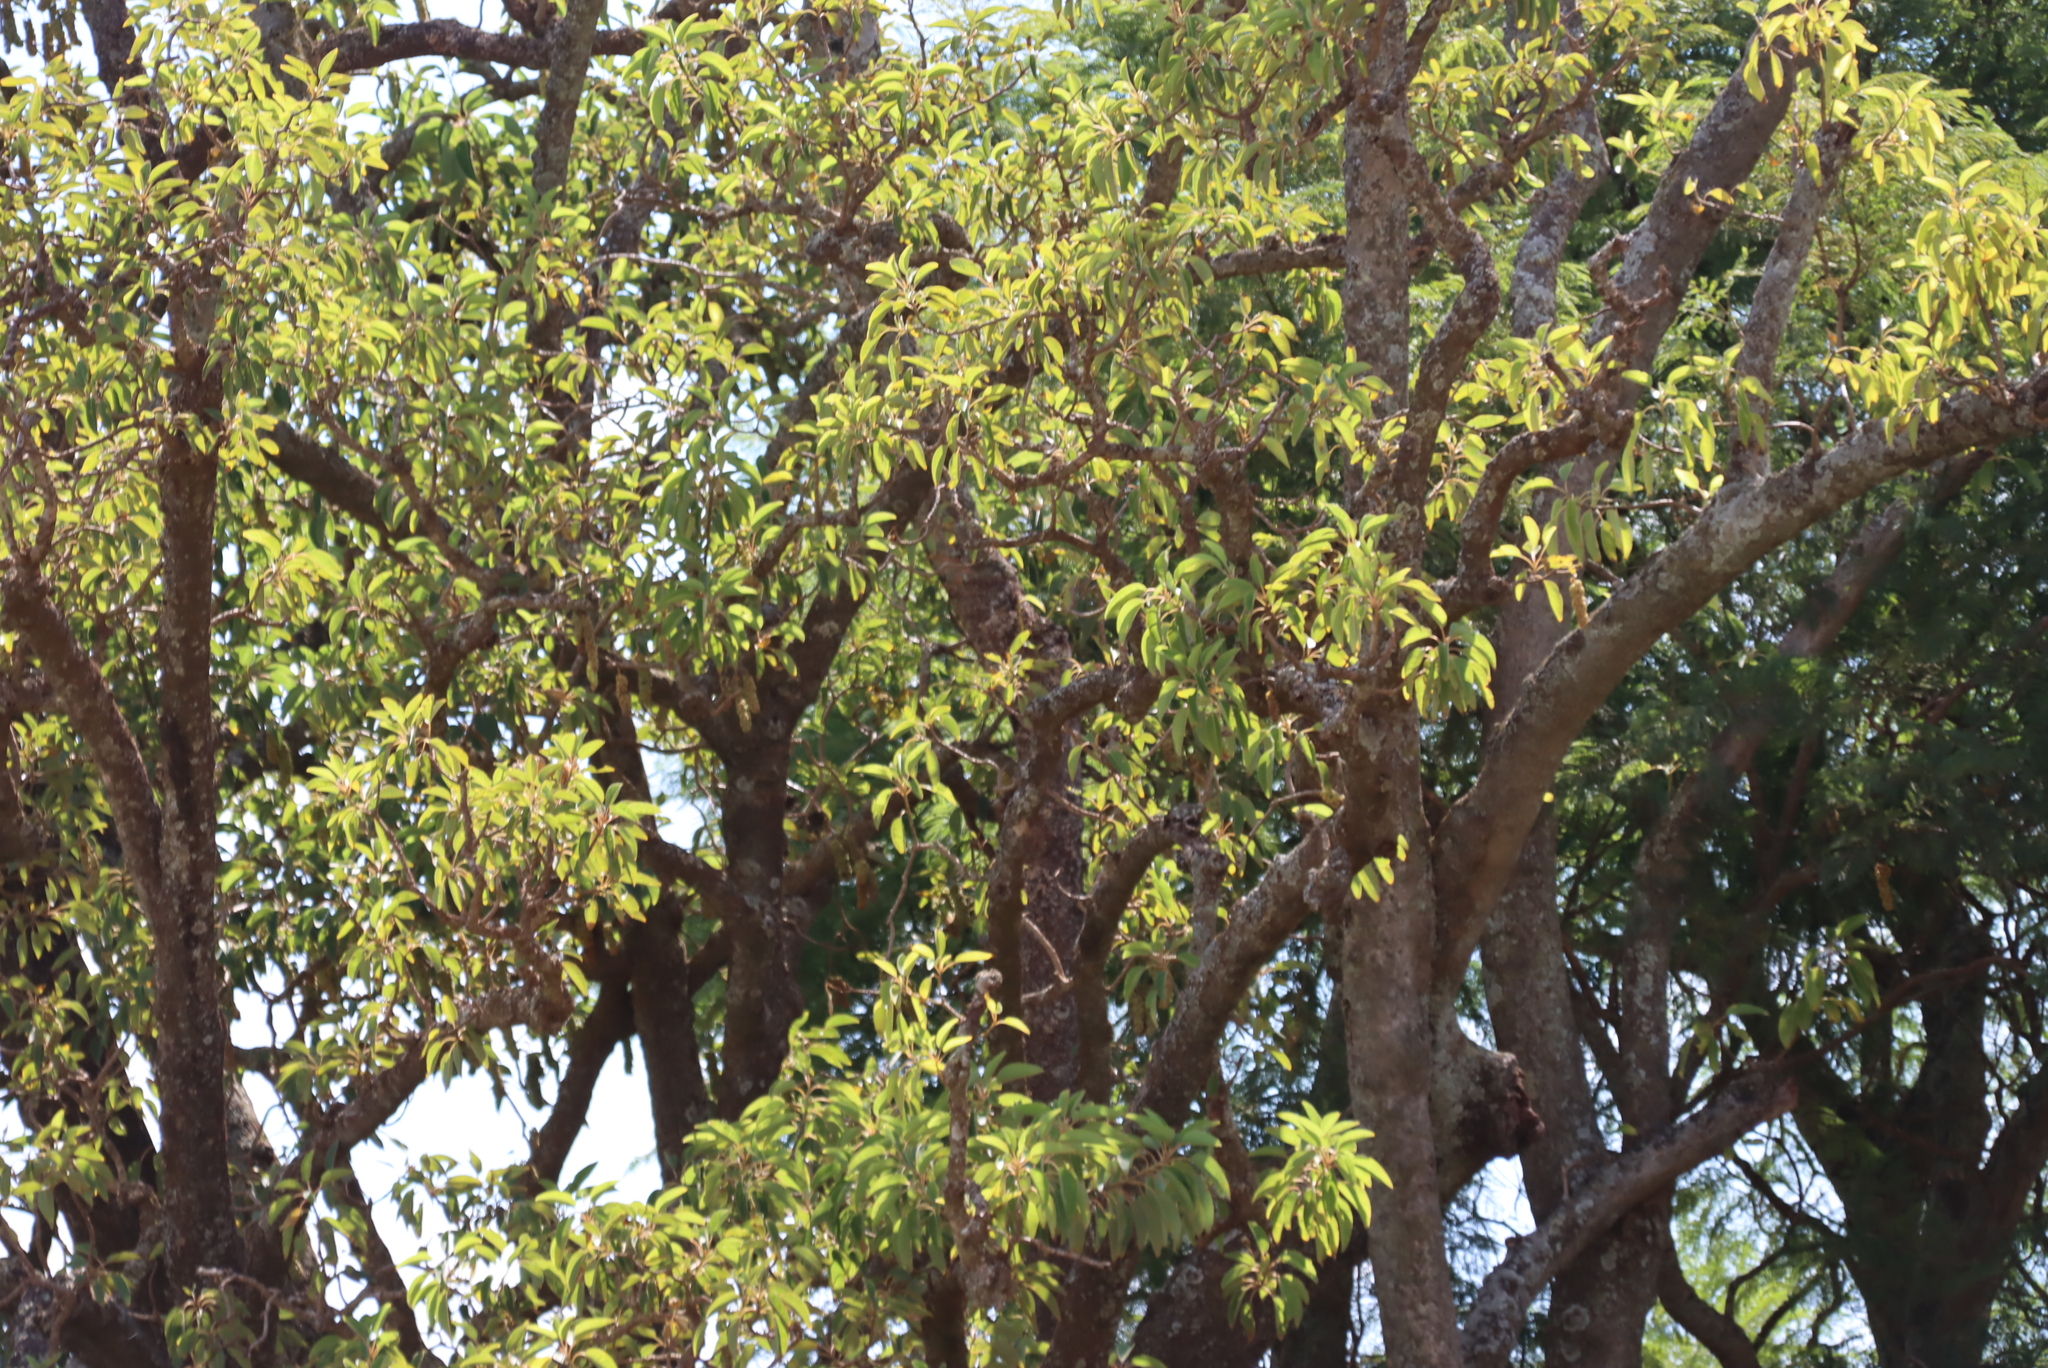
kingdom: Plantae
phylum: Tracheophyta
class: Magnoliopsida
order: Caryophyllales
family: Phytolaccaceae
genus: Phytolacca
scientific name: Phytolacca dioica
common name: Pokeweed
